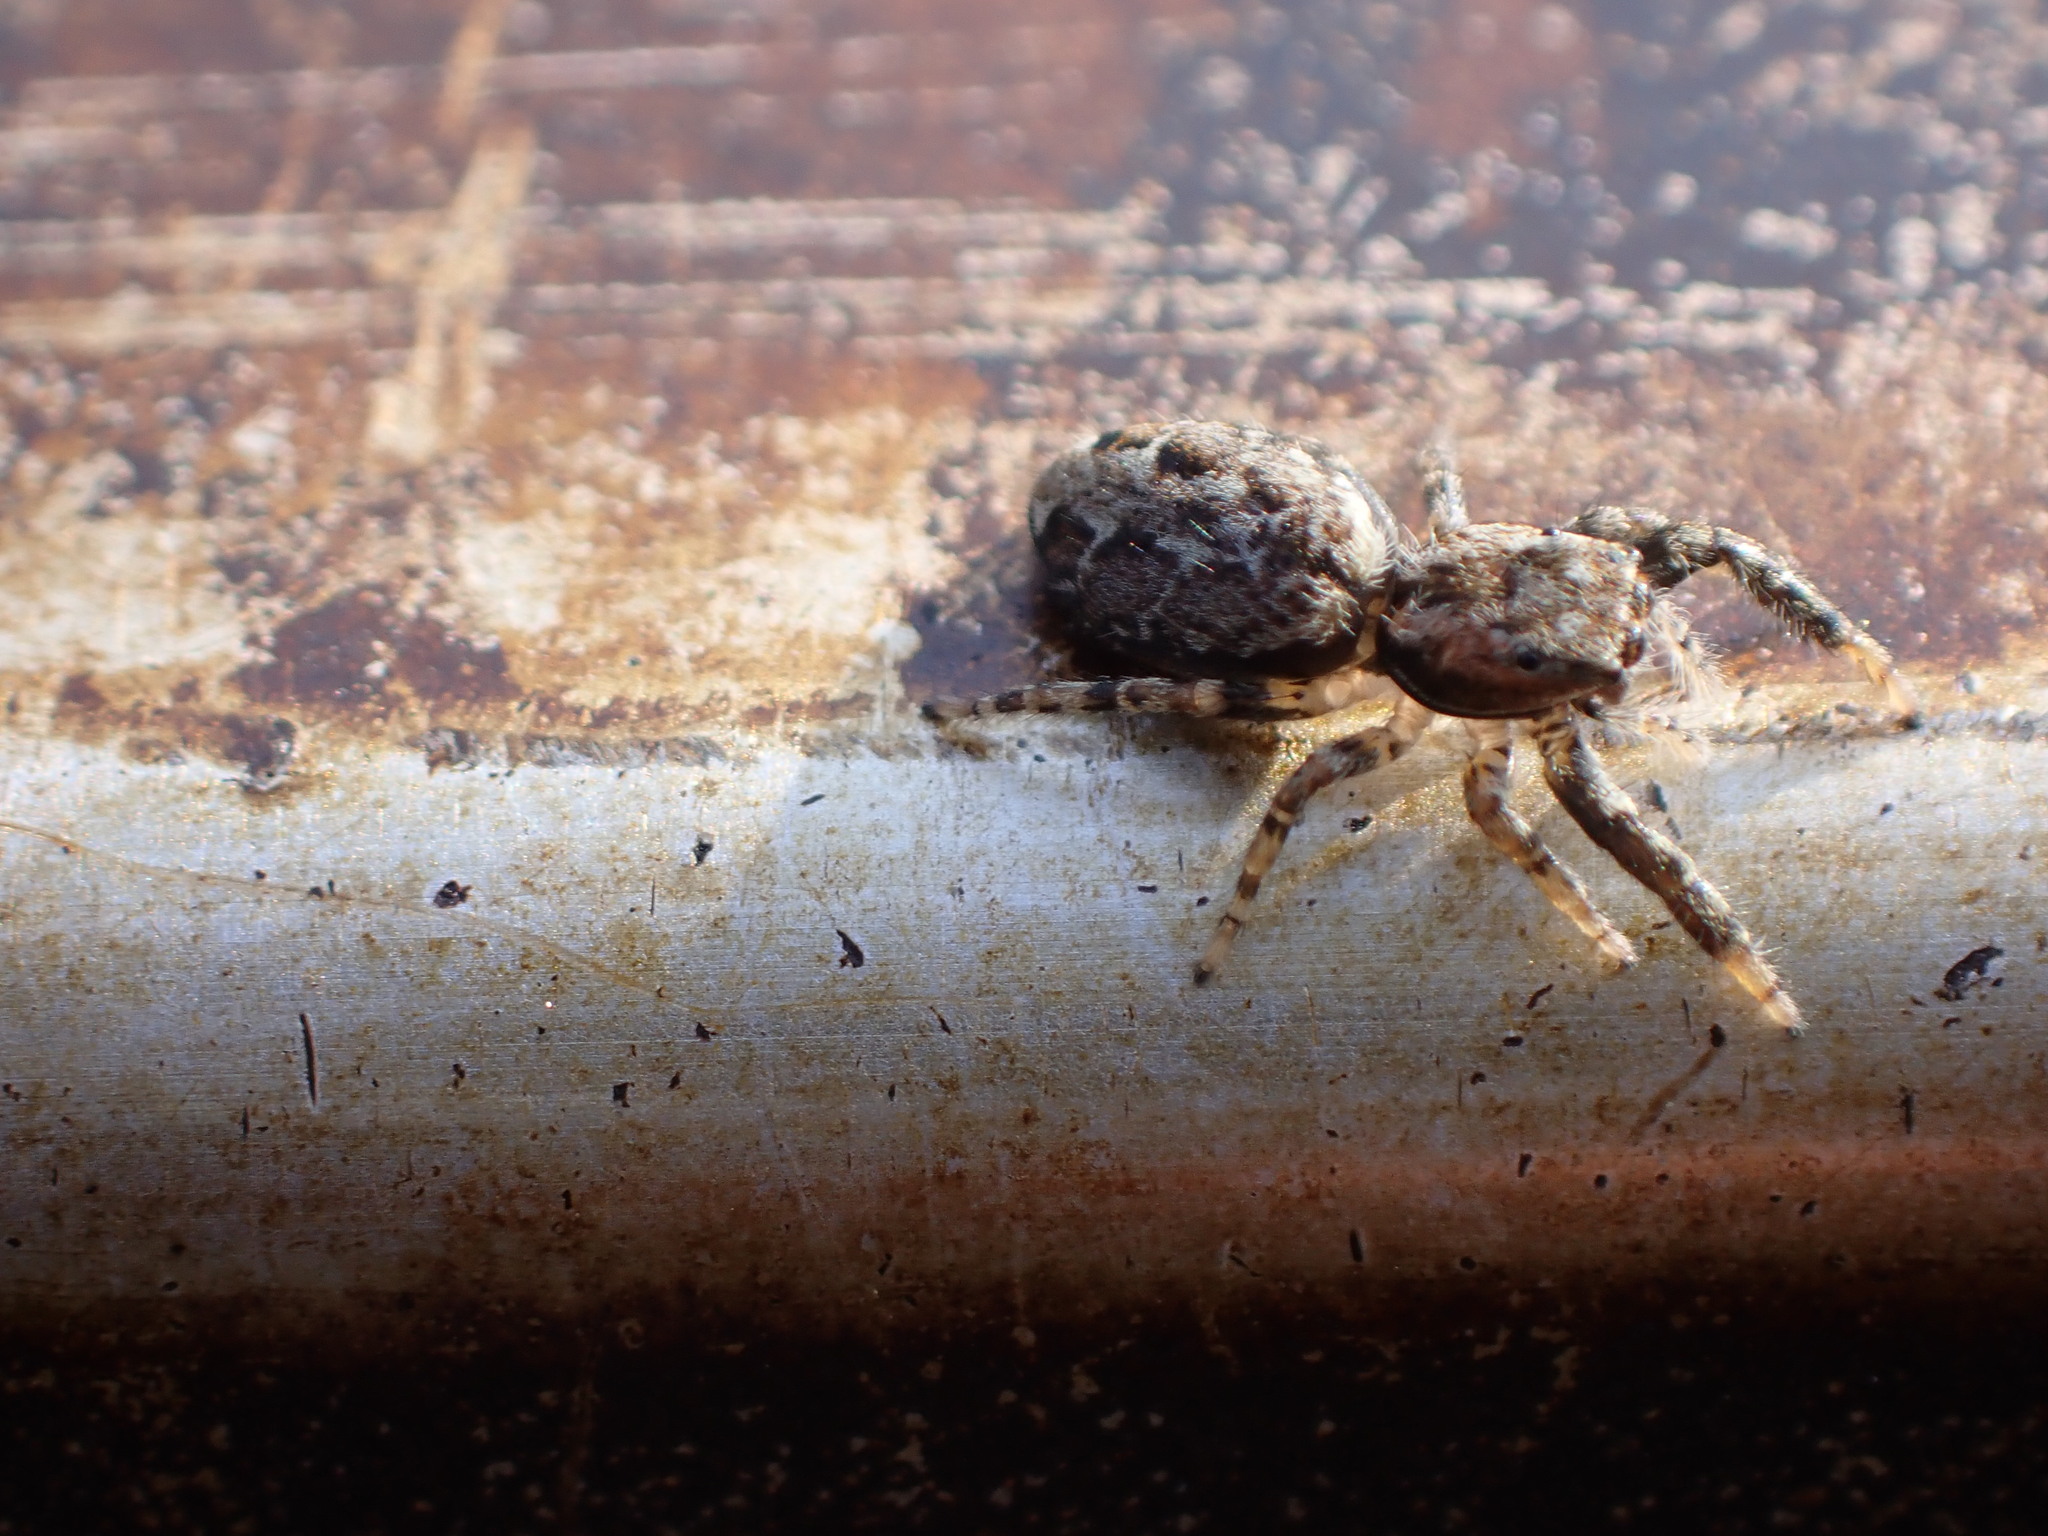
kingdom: Animalia
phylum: Arthropoda
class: Arachnida
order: Araneae
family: Salticidae
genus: Marpissa
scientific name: Marpissa muscosa
